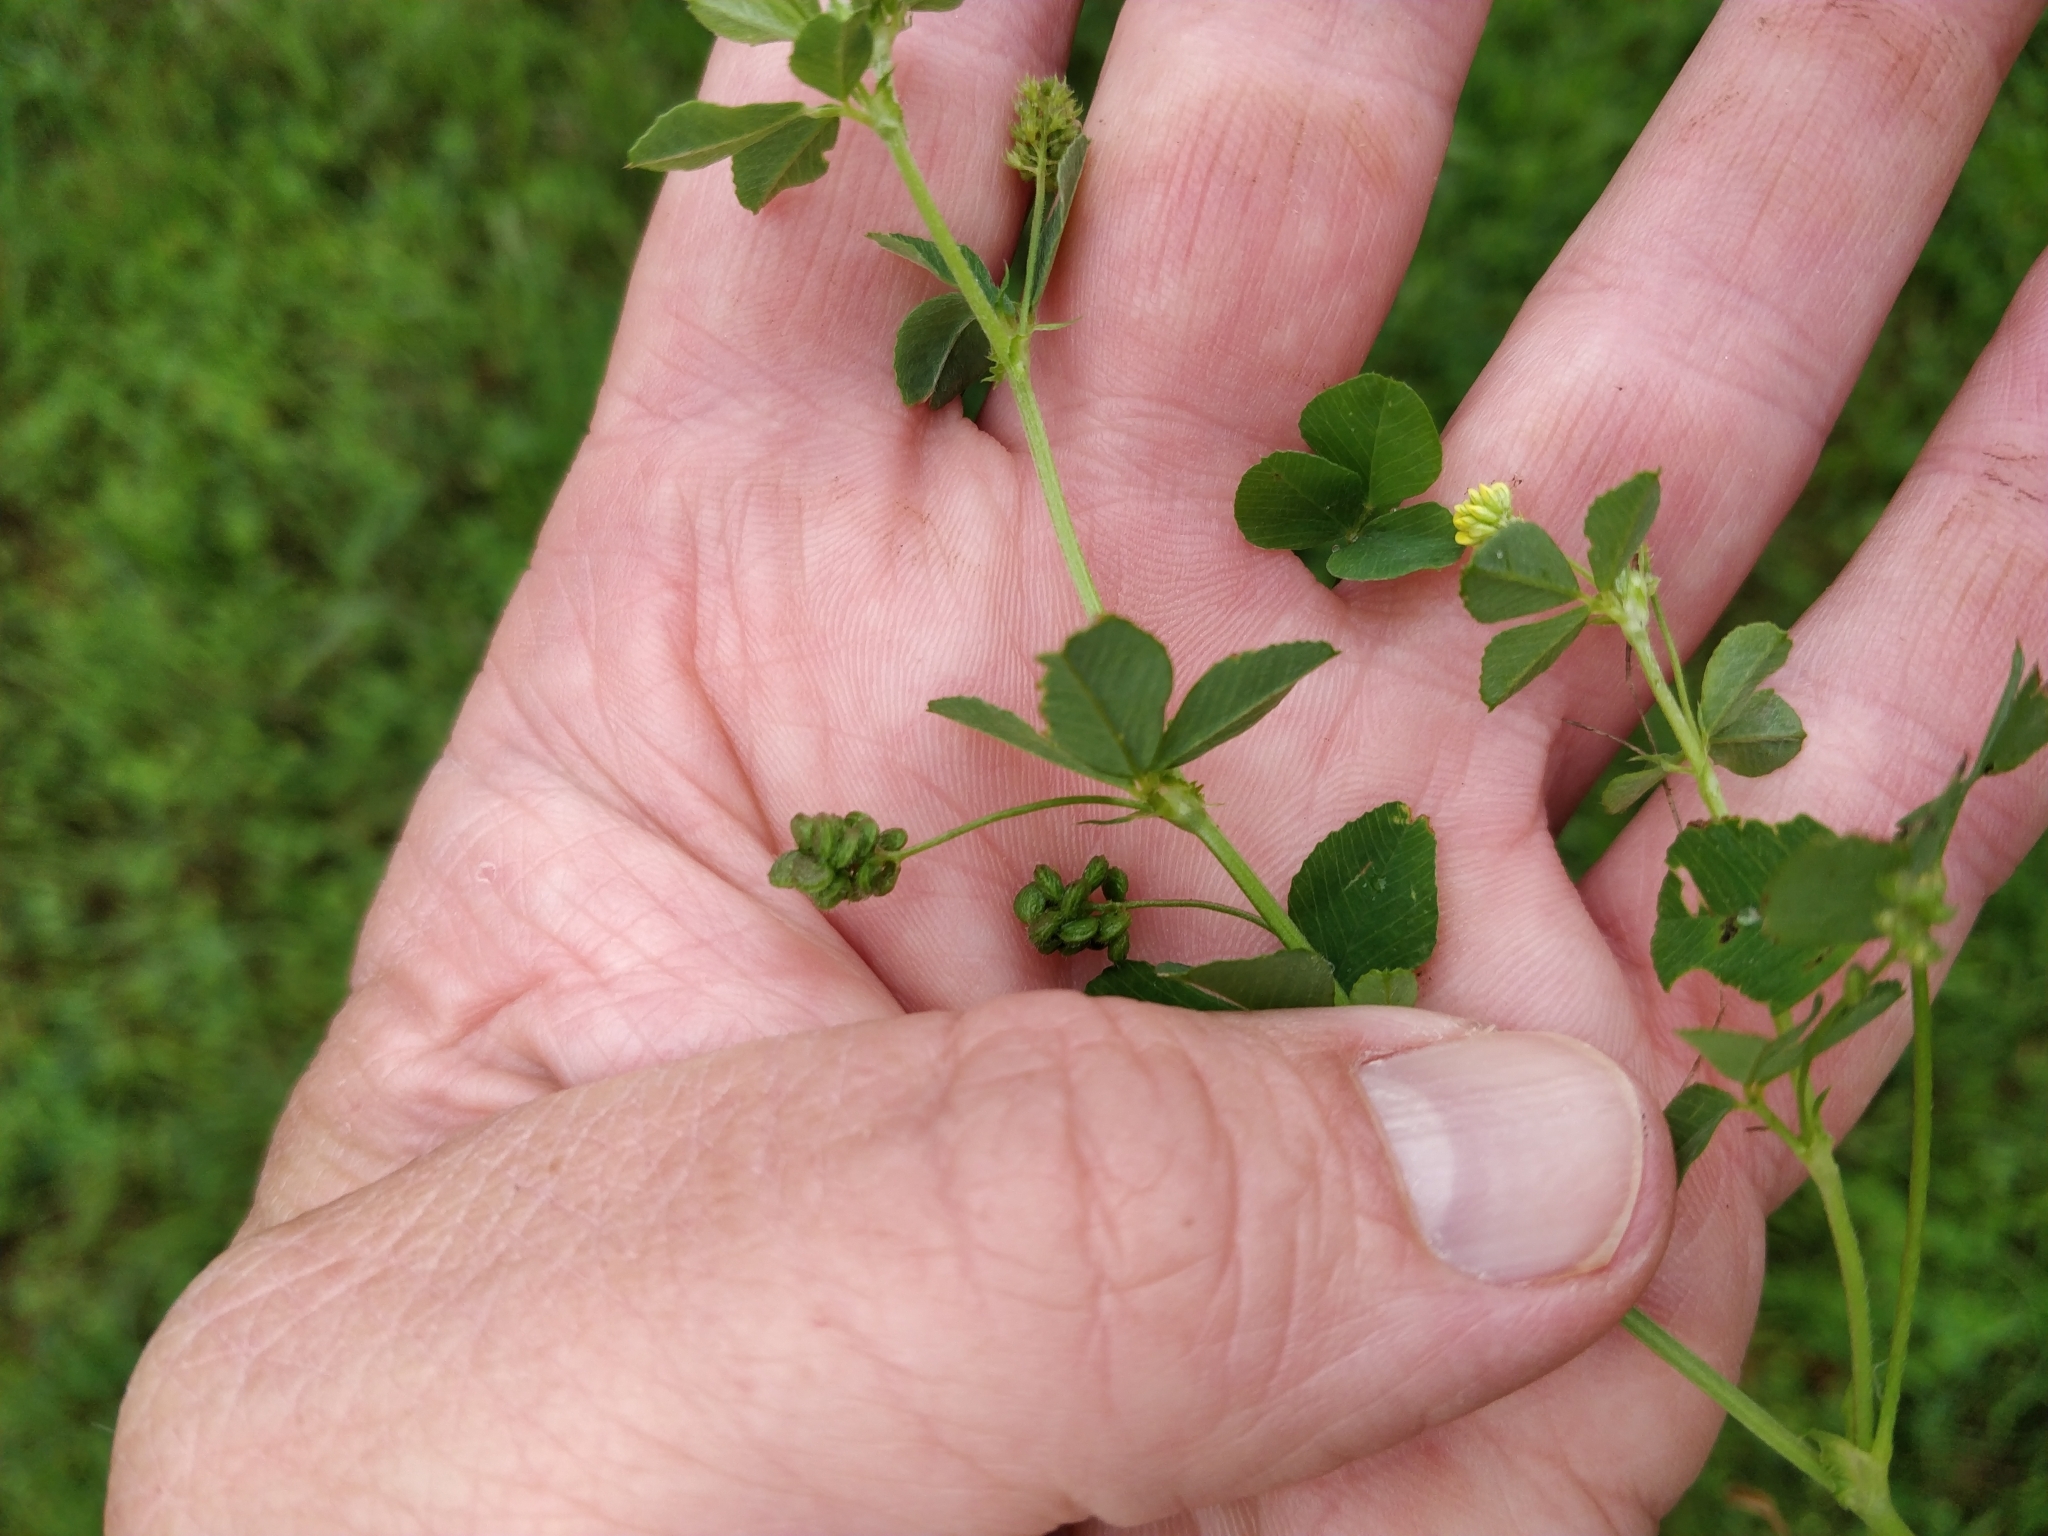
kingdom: Plantae
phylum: Tracheophyta
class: Magnoliopsida
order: Fabales
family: Fabaceae
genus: Medicago
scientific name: Medicago lupulina
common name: Black medick
